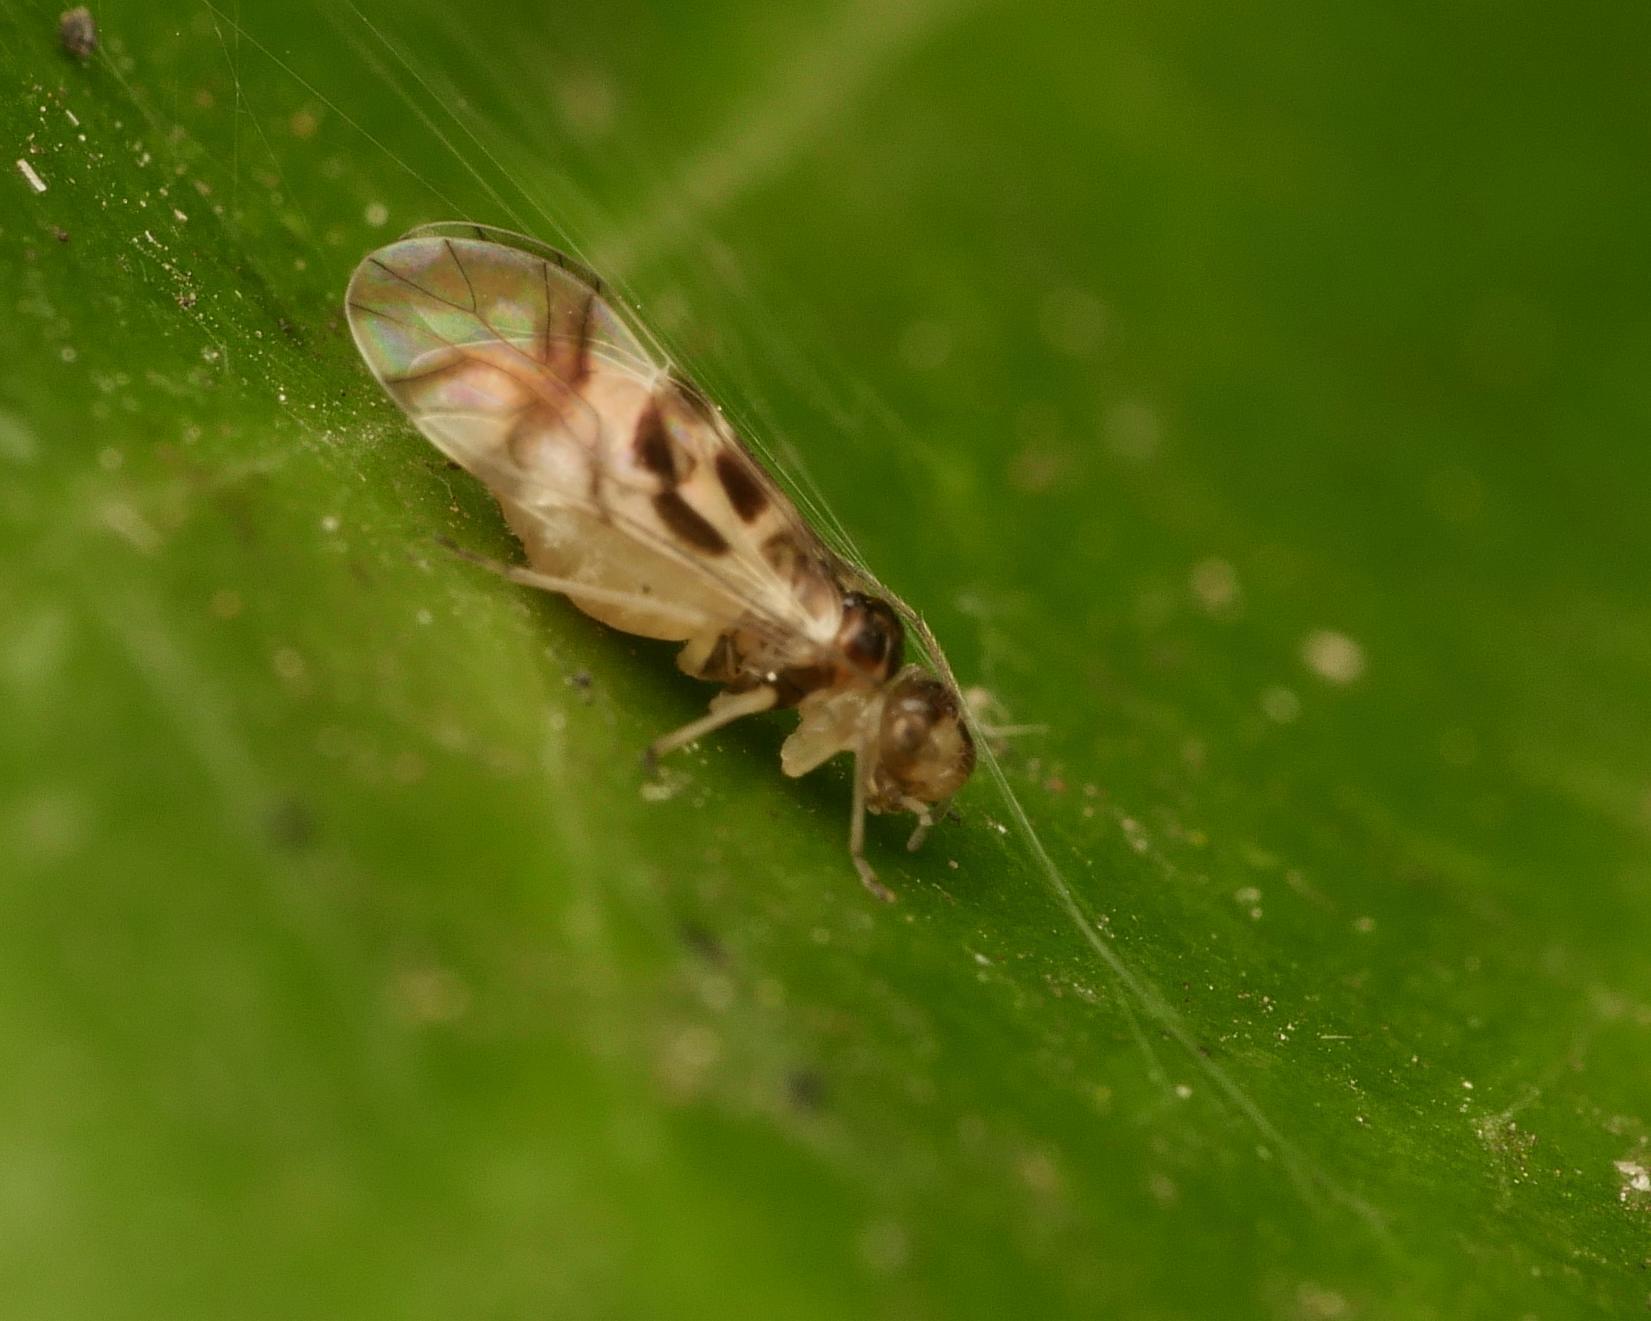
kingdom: Animalia
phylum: Arthropoda
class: Insecta
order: Psocodea
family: Stenopsocidae
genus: Graphopsocus
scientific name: Graphopsocus cruciatus
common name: Lizard bark louse
